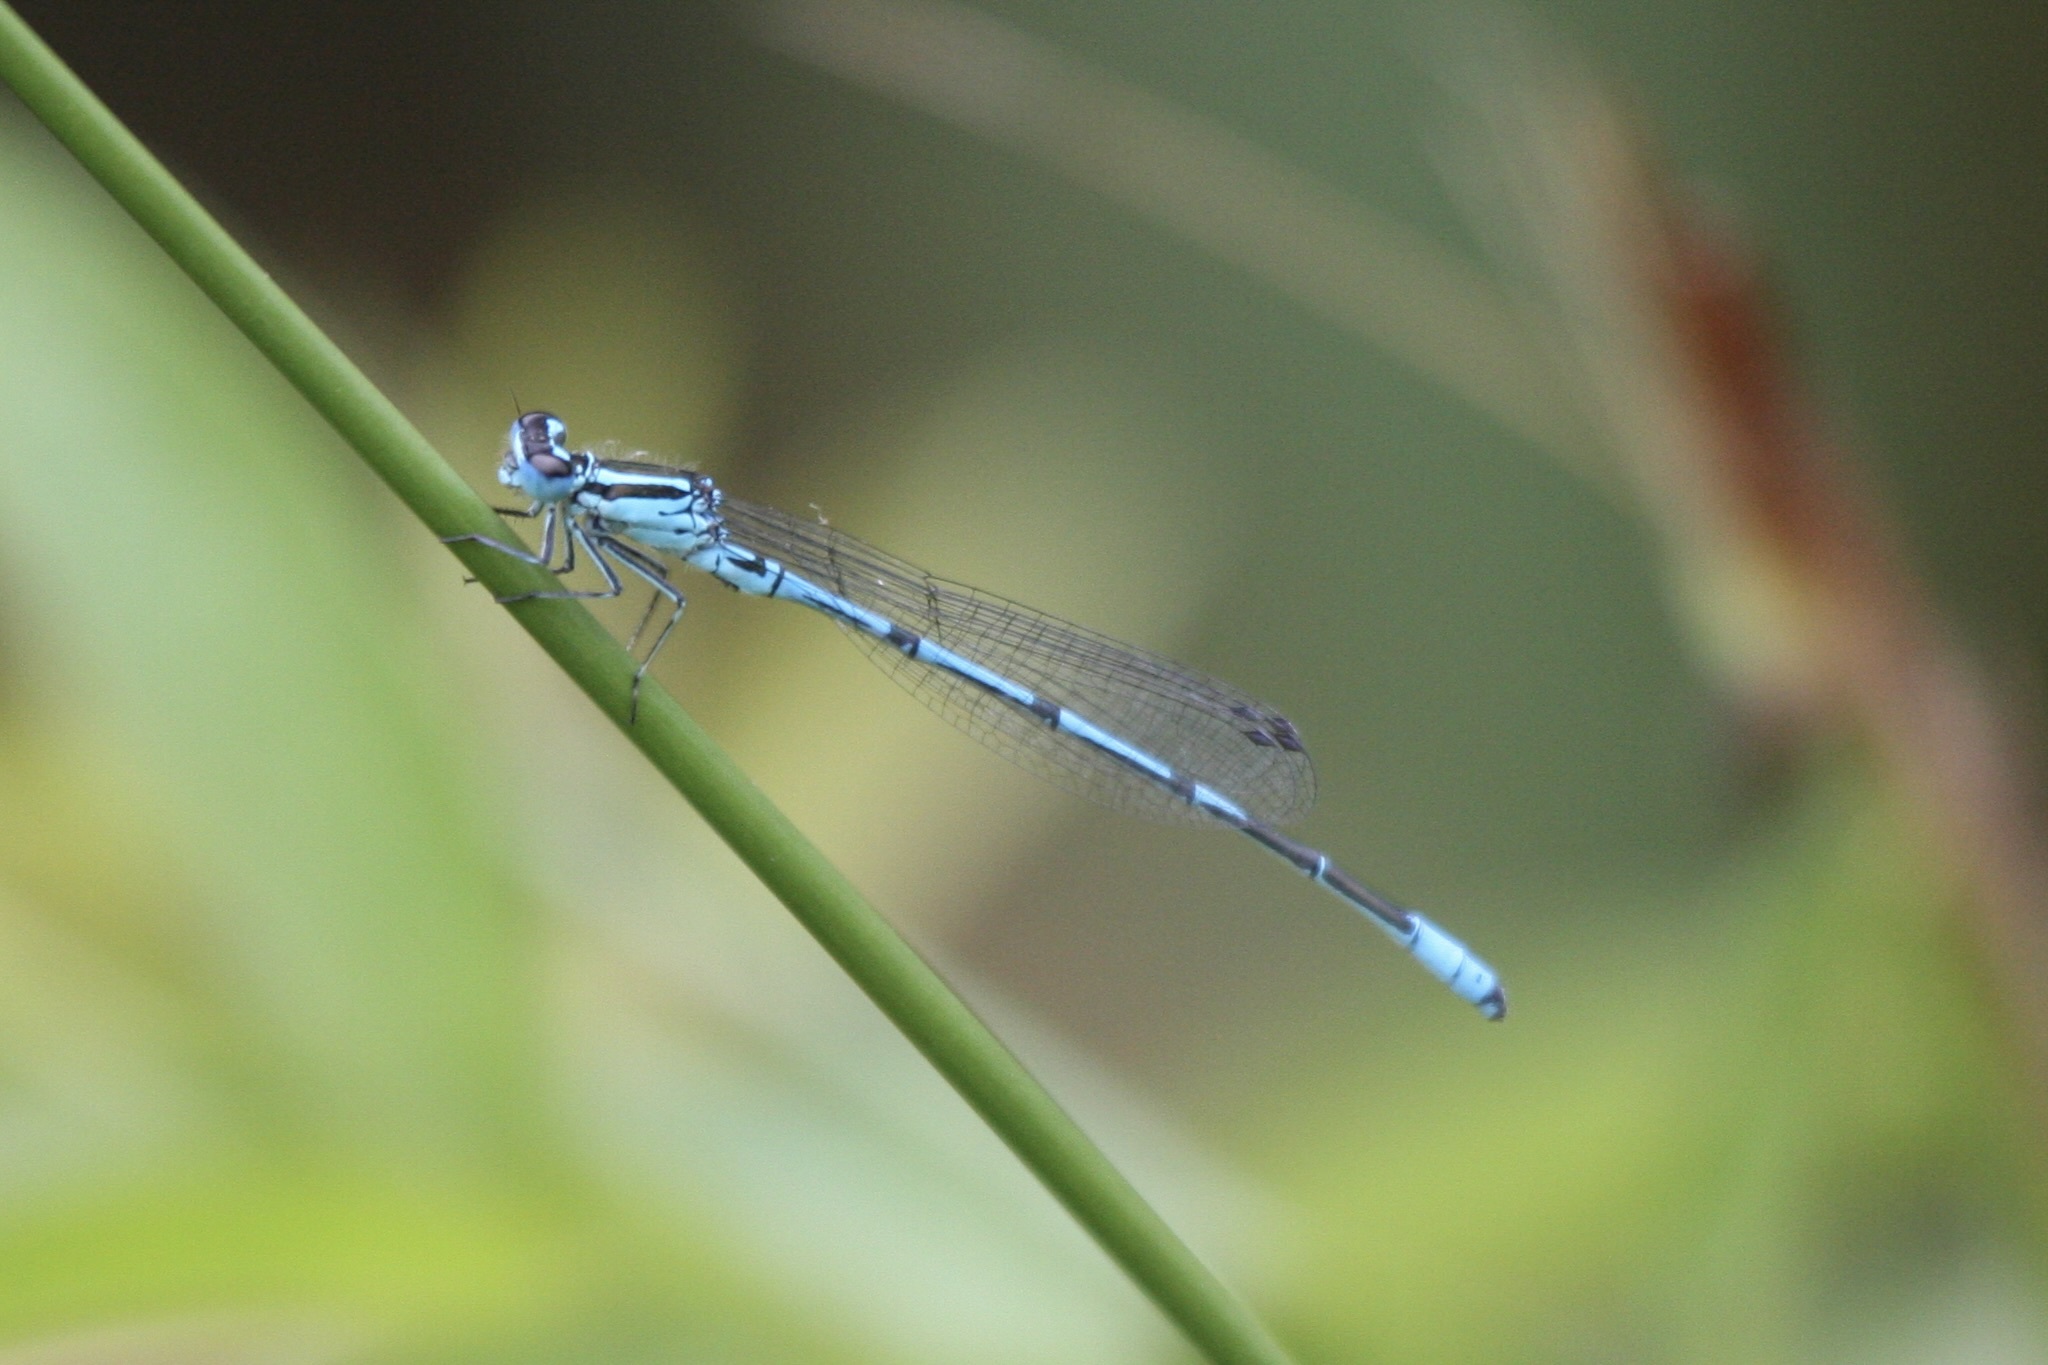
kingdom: Animalia
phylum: Arthropoda
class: Insecta
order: Odonata
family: Coenagrionidae
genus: Coenagrion
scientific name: Coenagrion puella
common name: Azure damselfly
